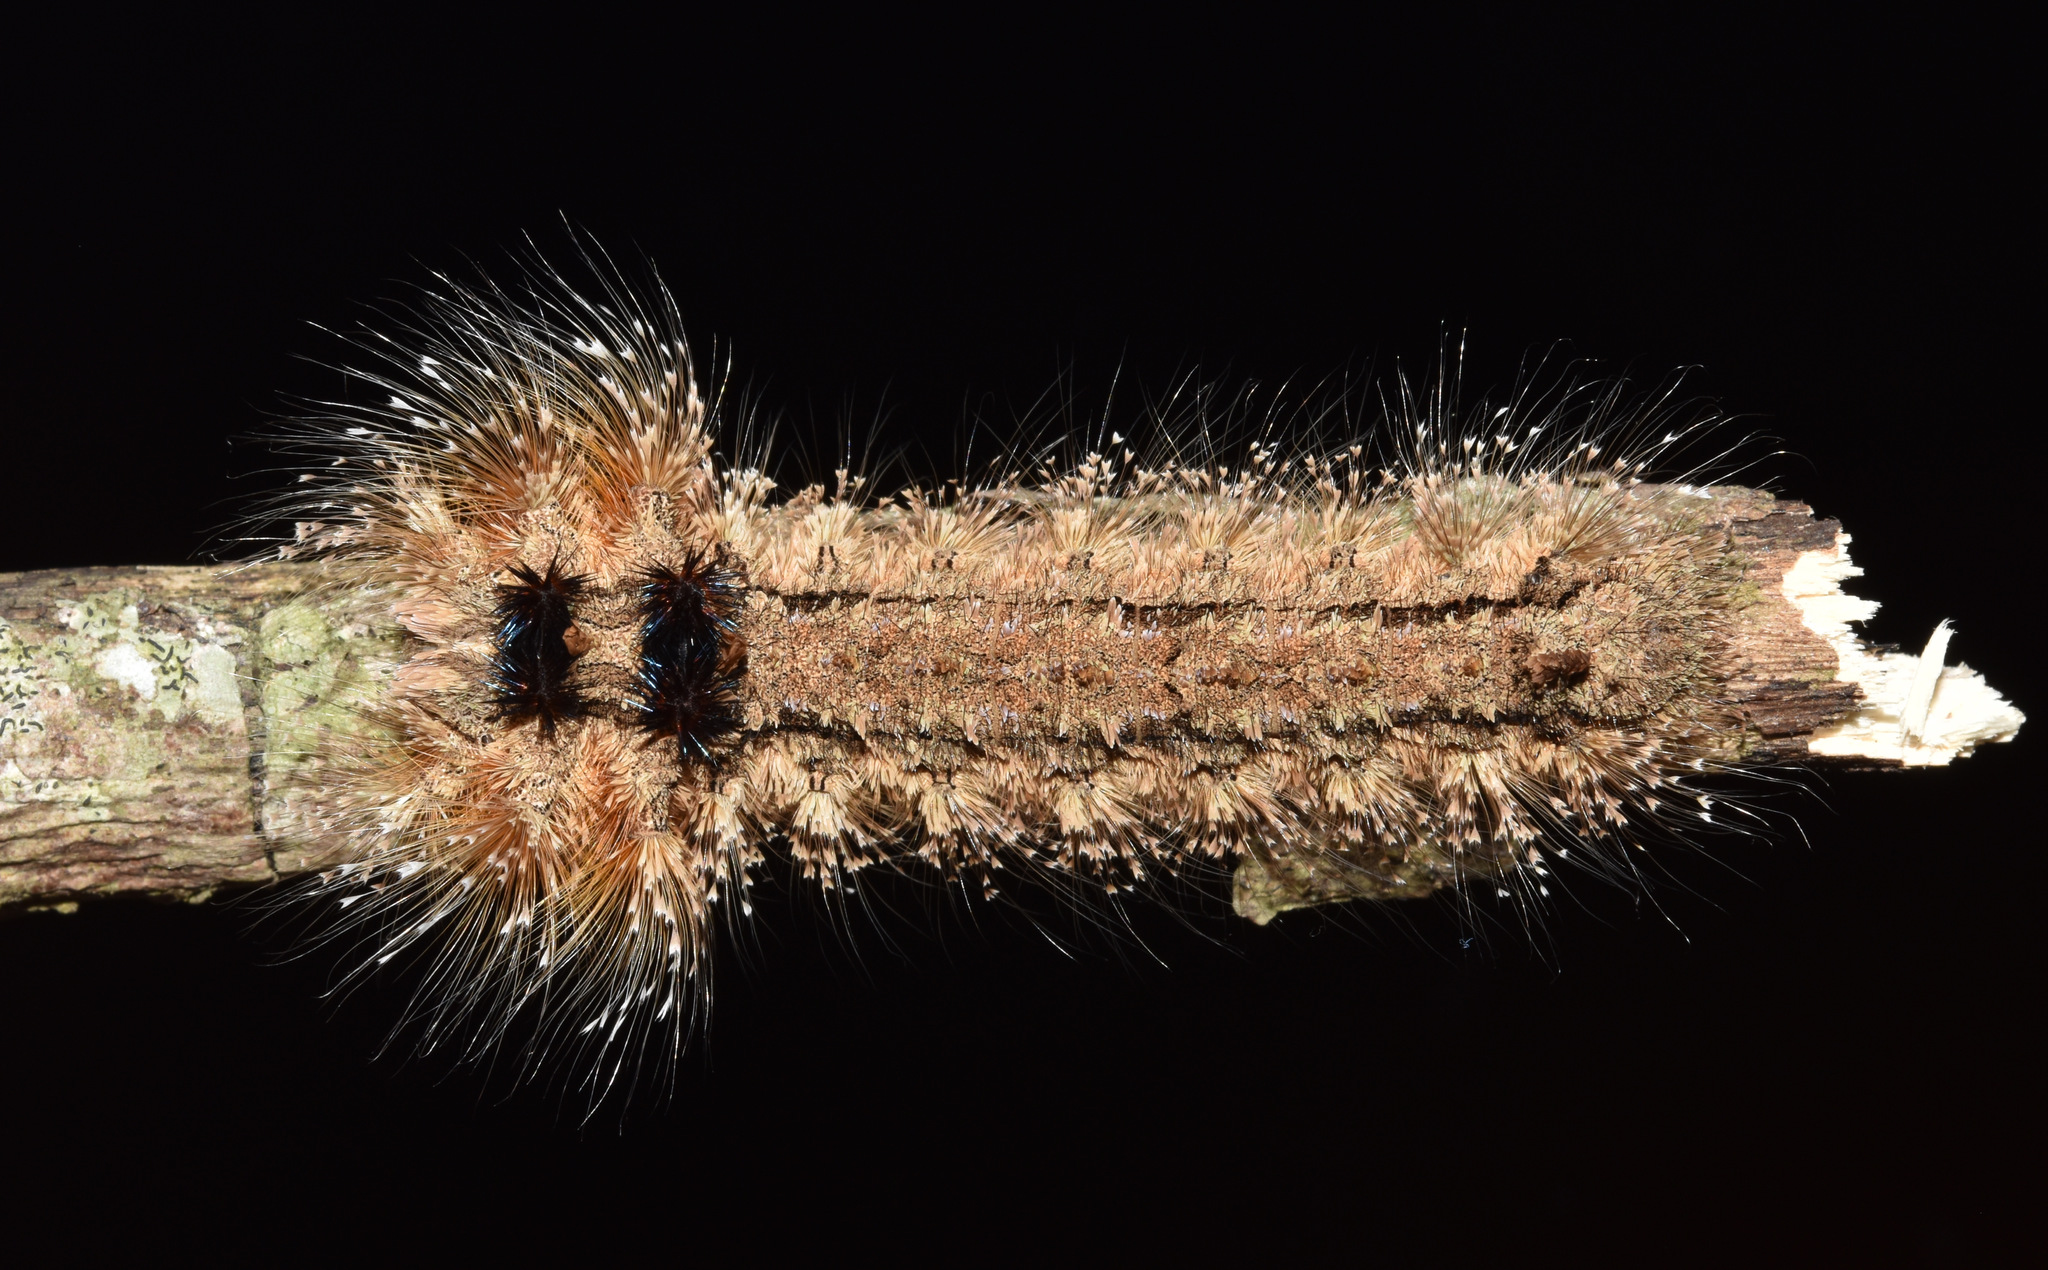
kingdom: Animalia
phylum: Arthropoda
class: Insecta
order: Lepidoptera
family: Lasiocampidae
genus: Pachypasa
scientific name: Pachypasa truncata
